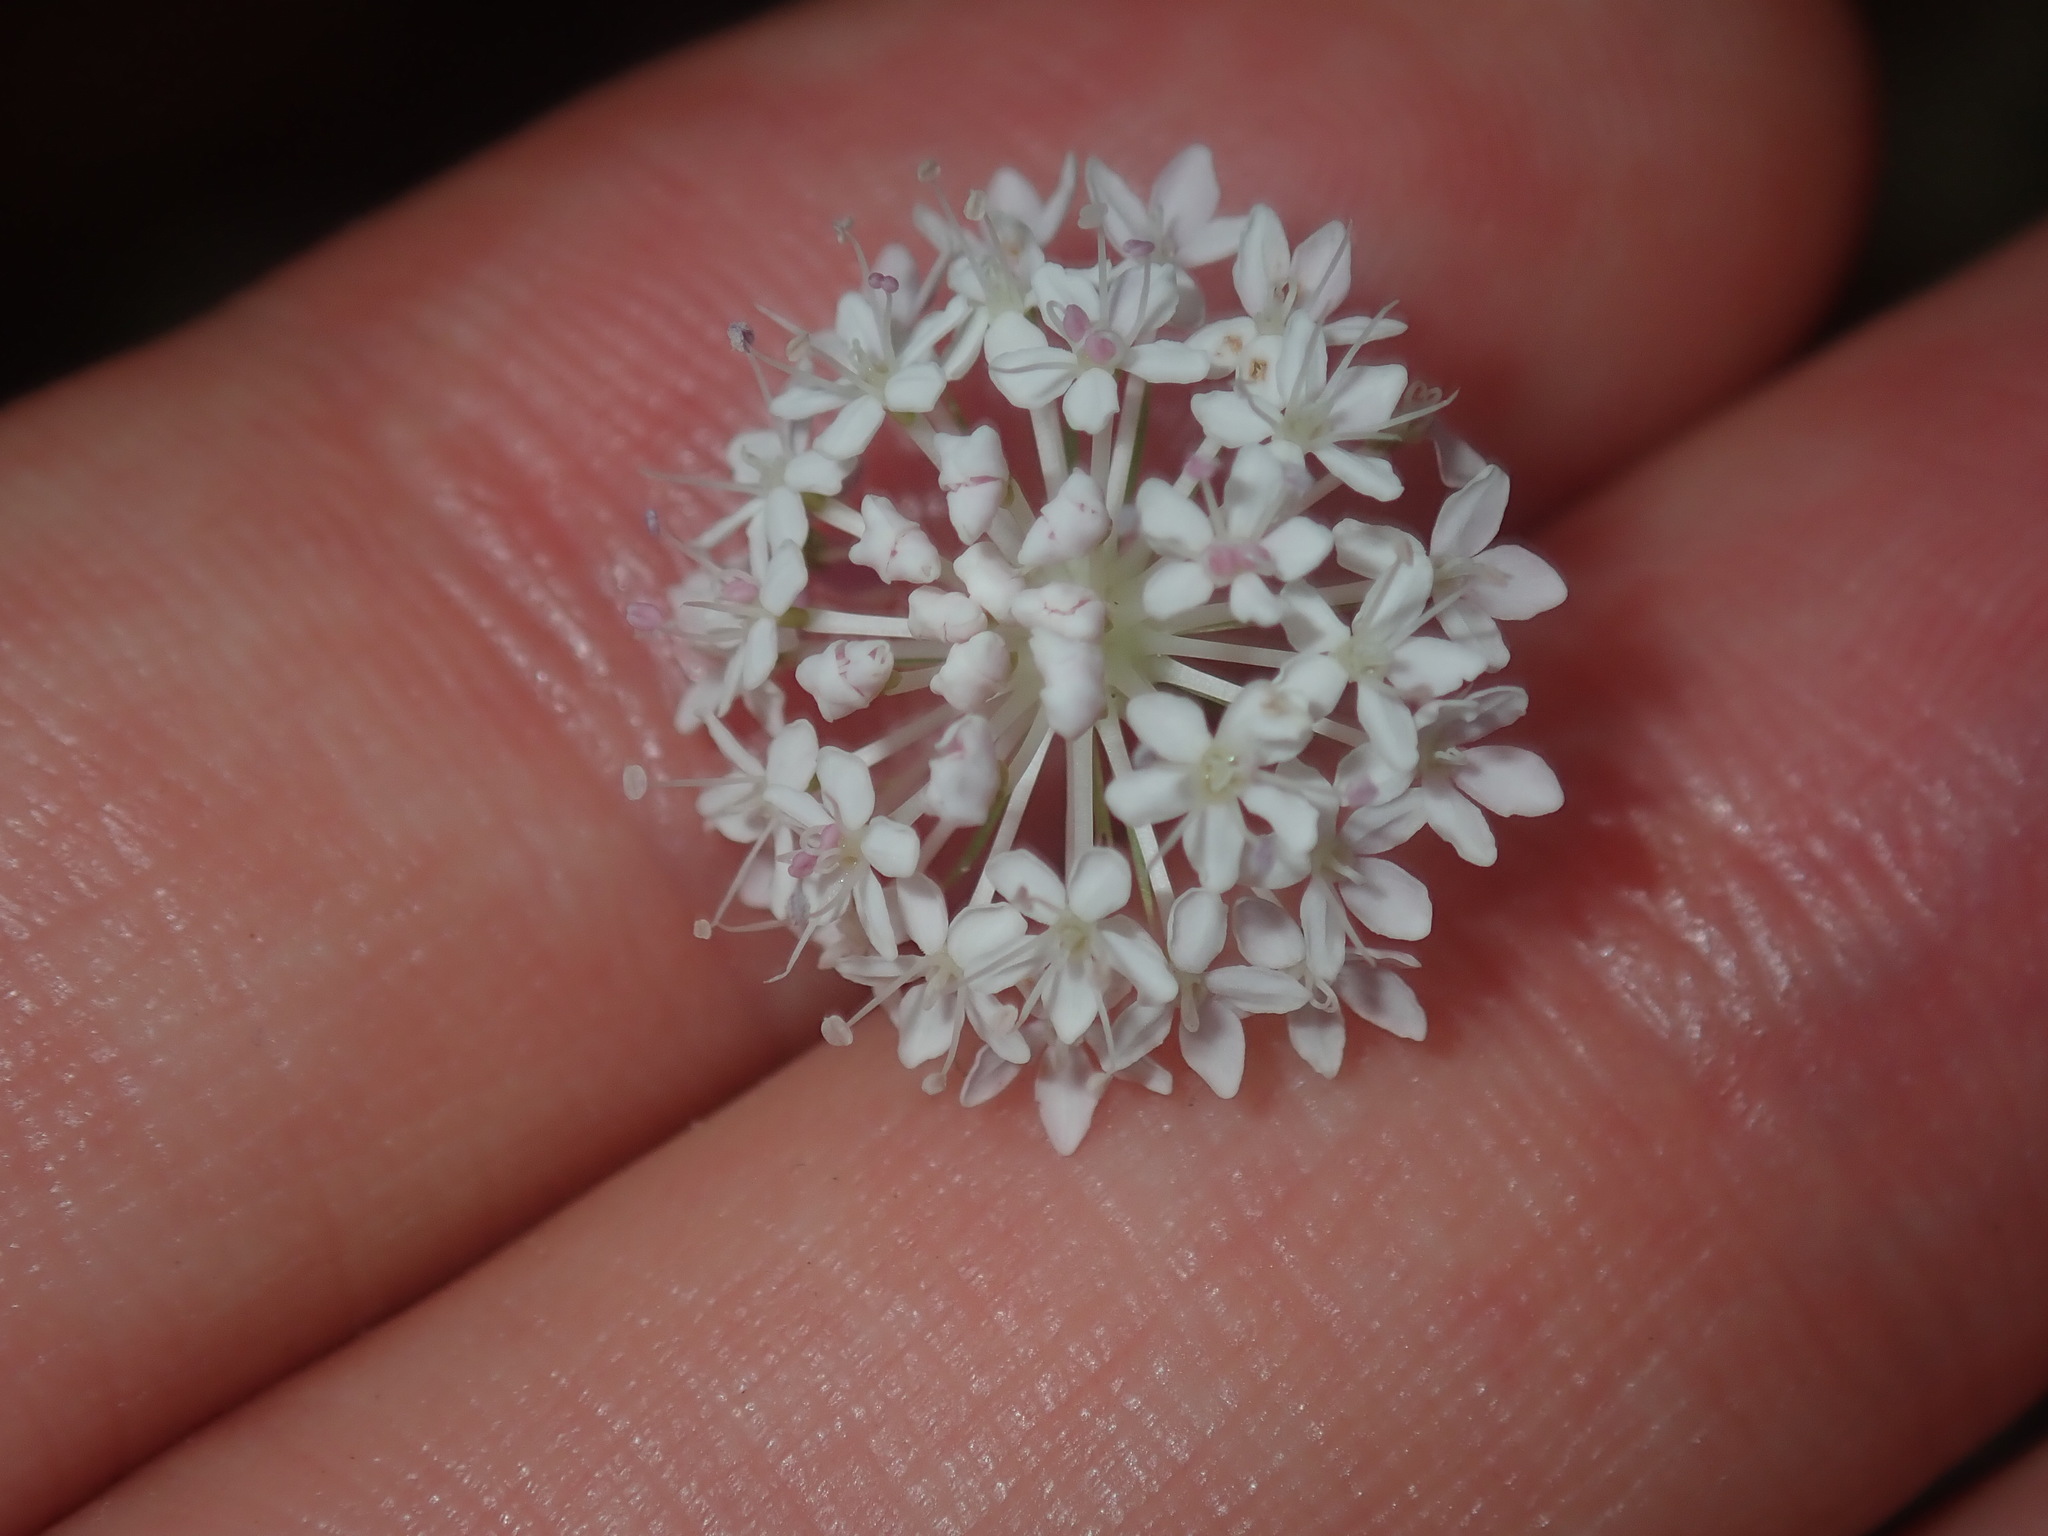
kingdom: Plantae
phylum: Tracheophyta
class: Magnoliopsida
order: Apiales
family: Araliaceae
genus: Trachymene
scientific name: Trachymene incisa
